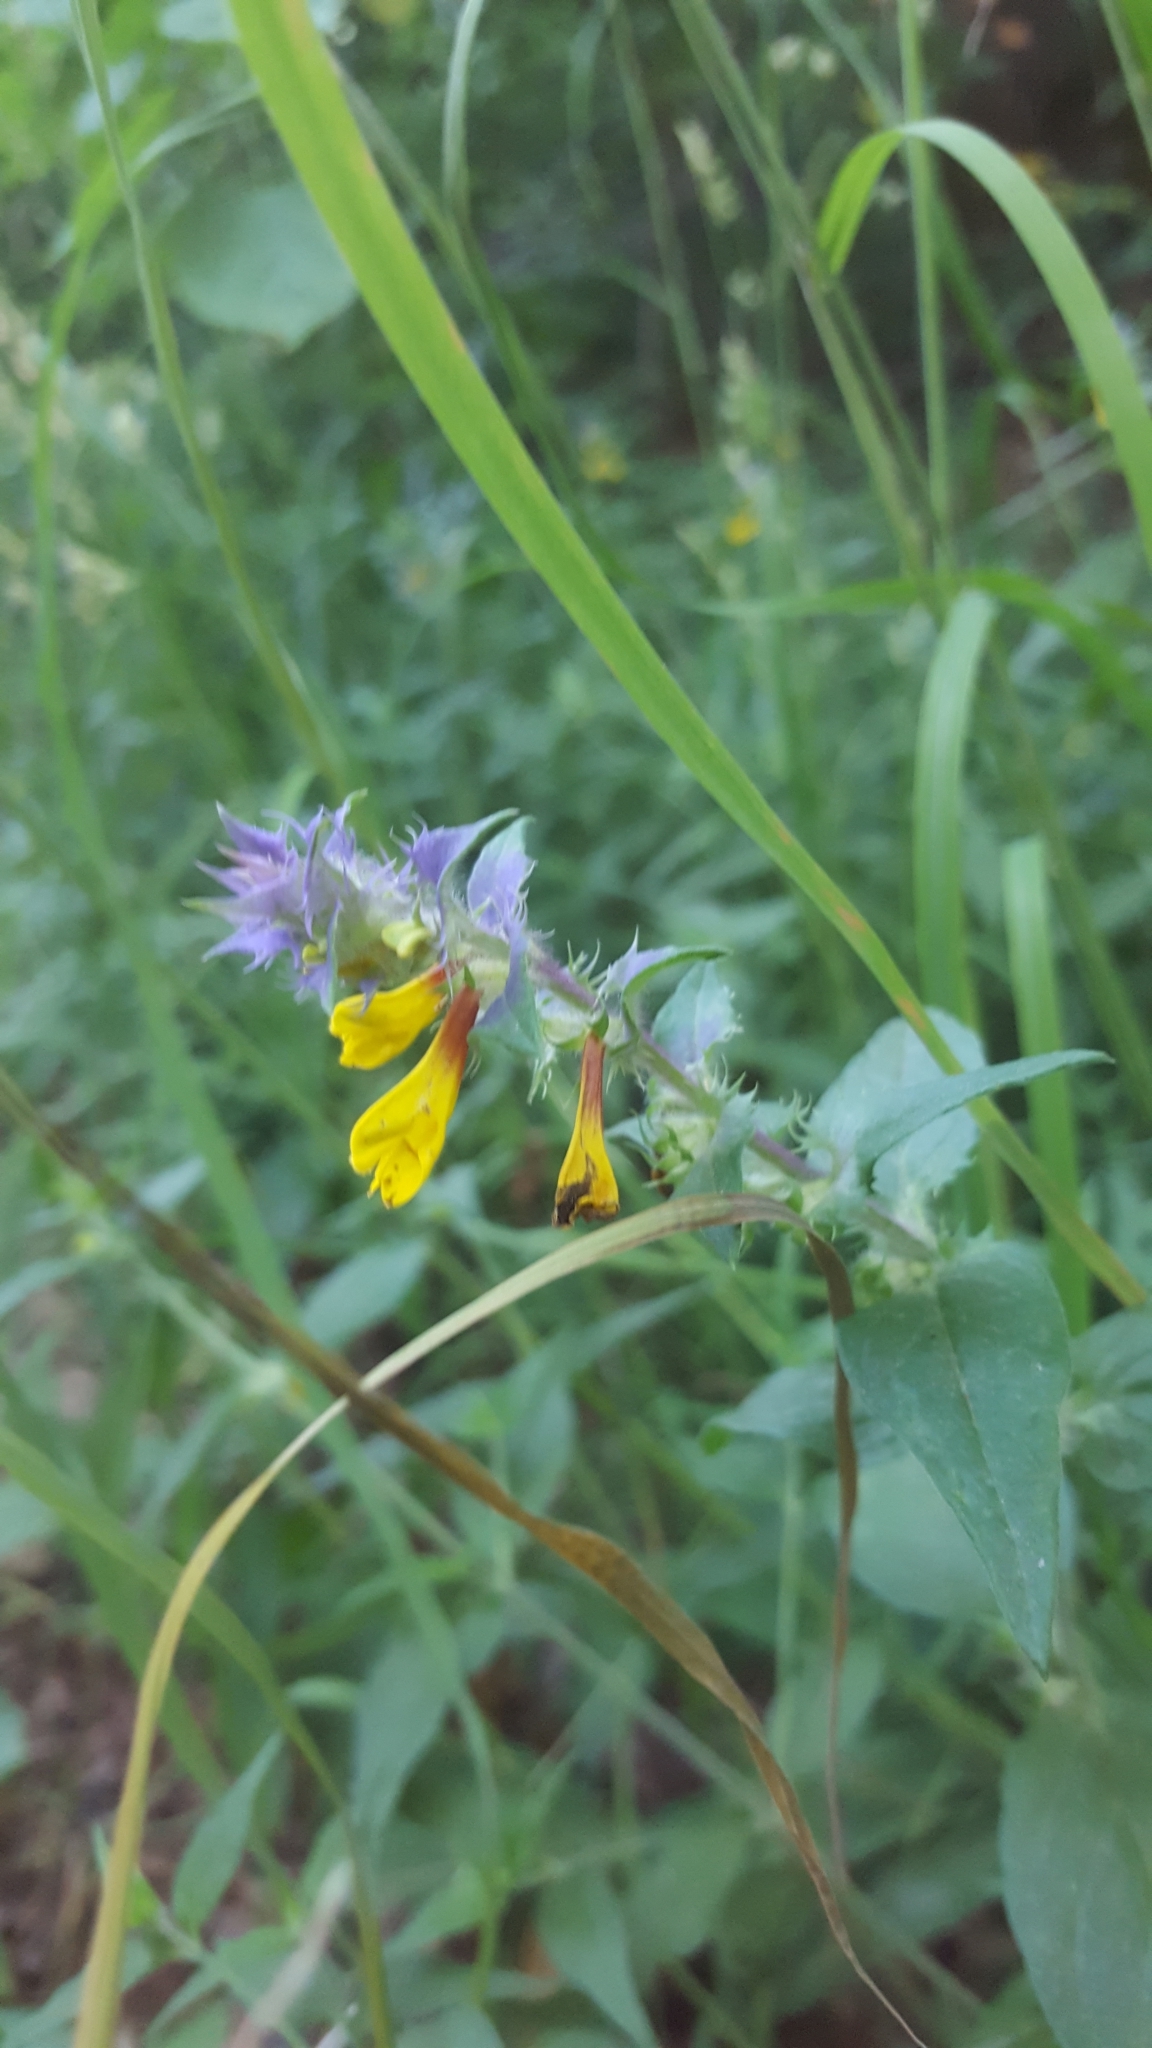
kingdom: Plantae
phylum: Tracheophyta
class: Magnoliopsida
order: Lamiales
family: Orobanchaceae
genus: Melampyrum
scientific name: Melampyrum nemorosum
